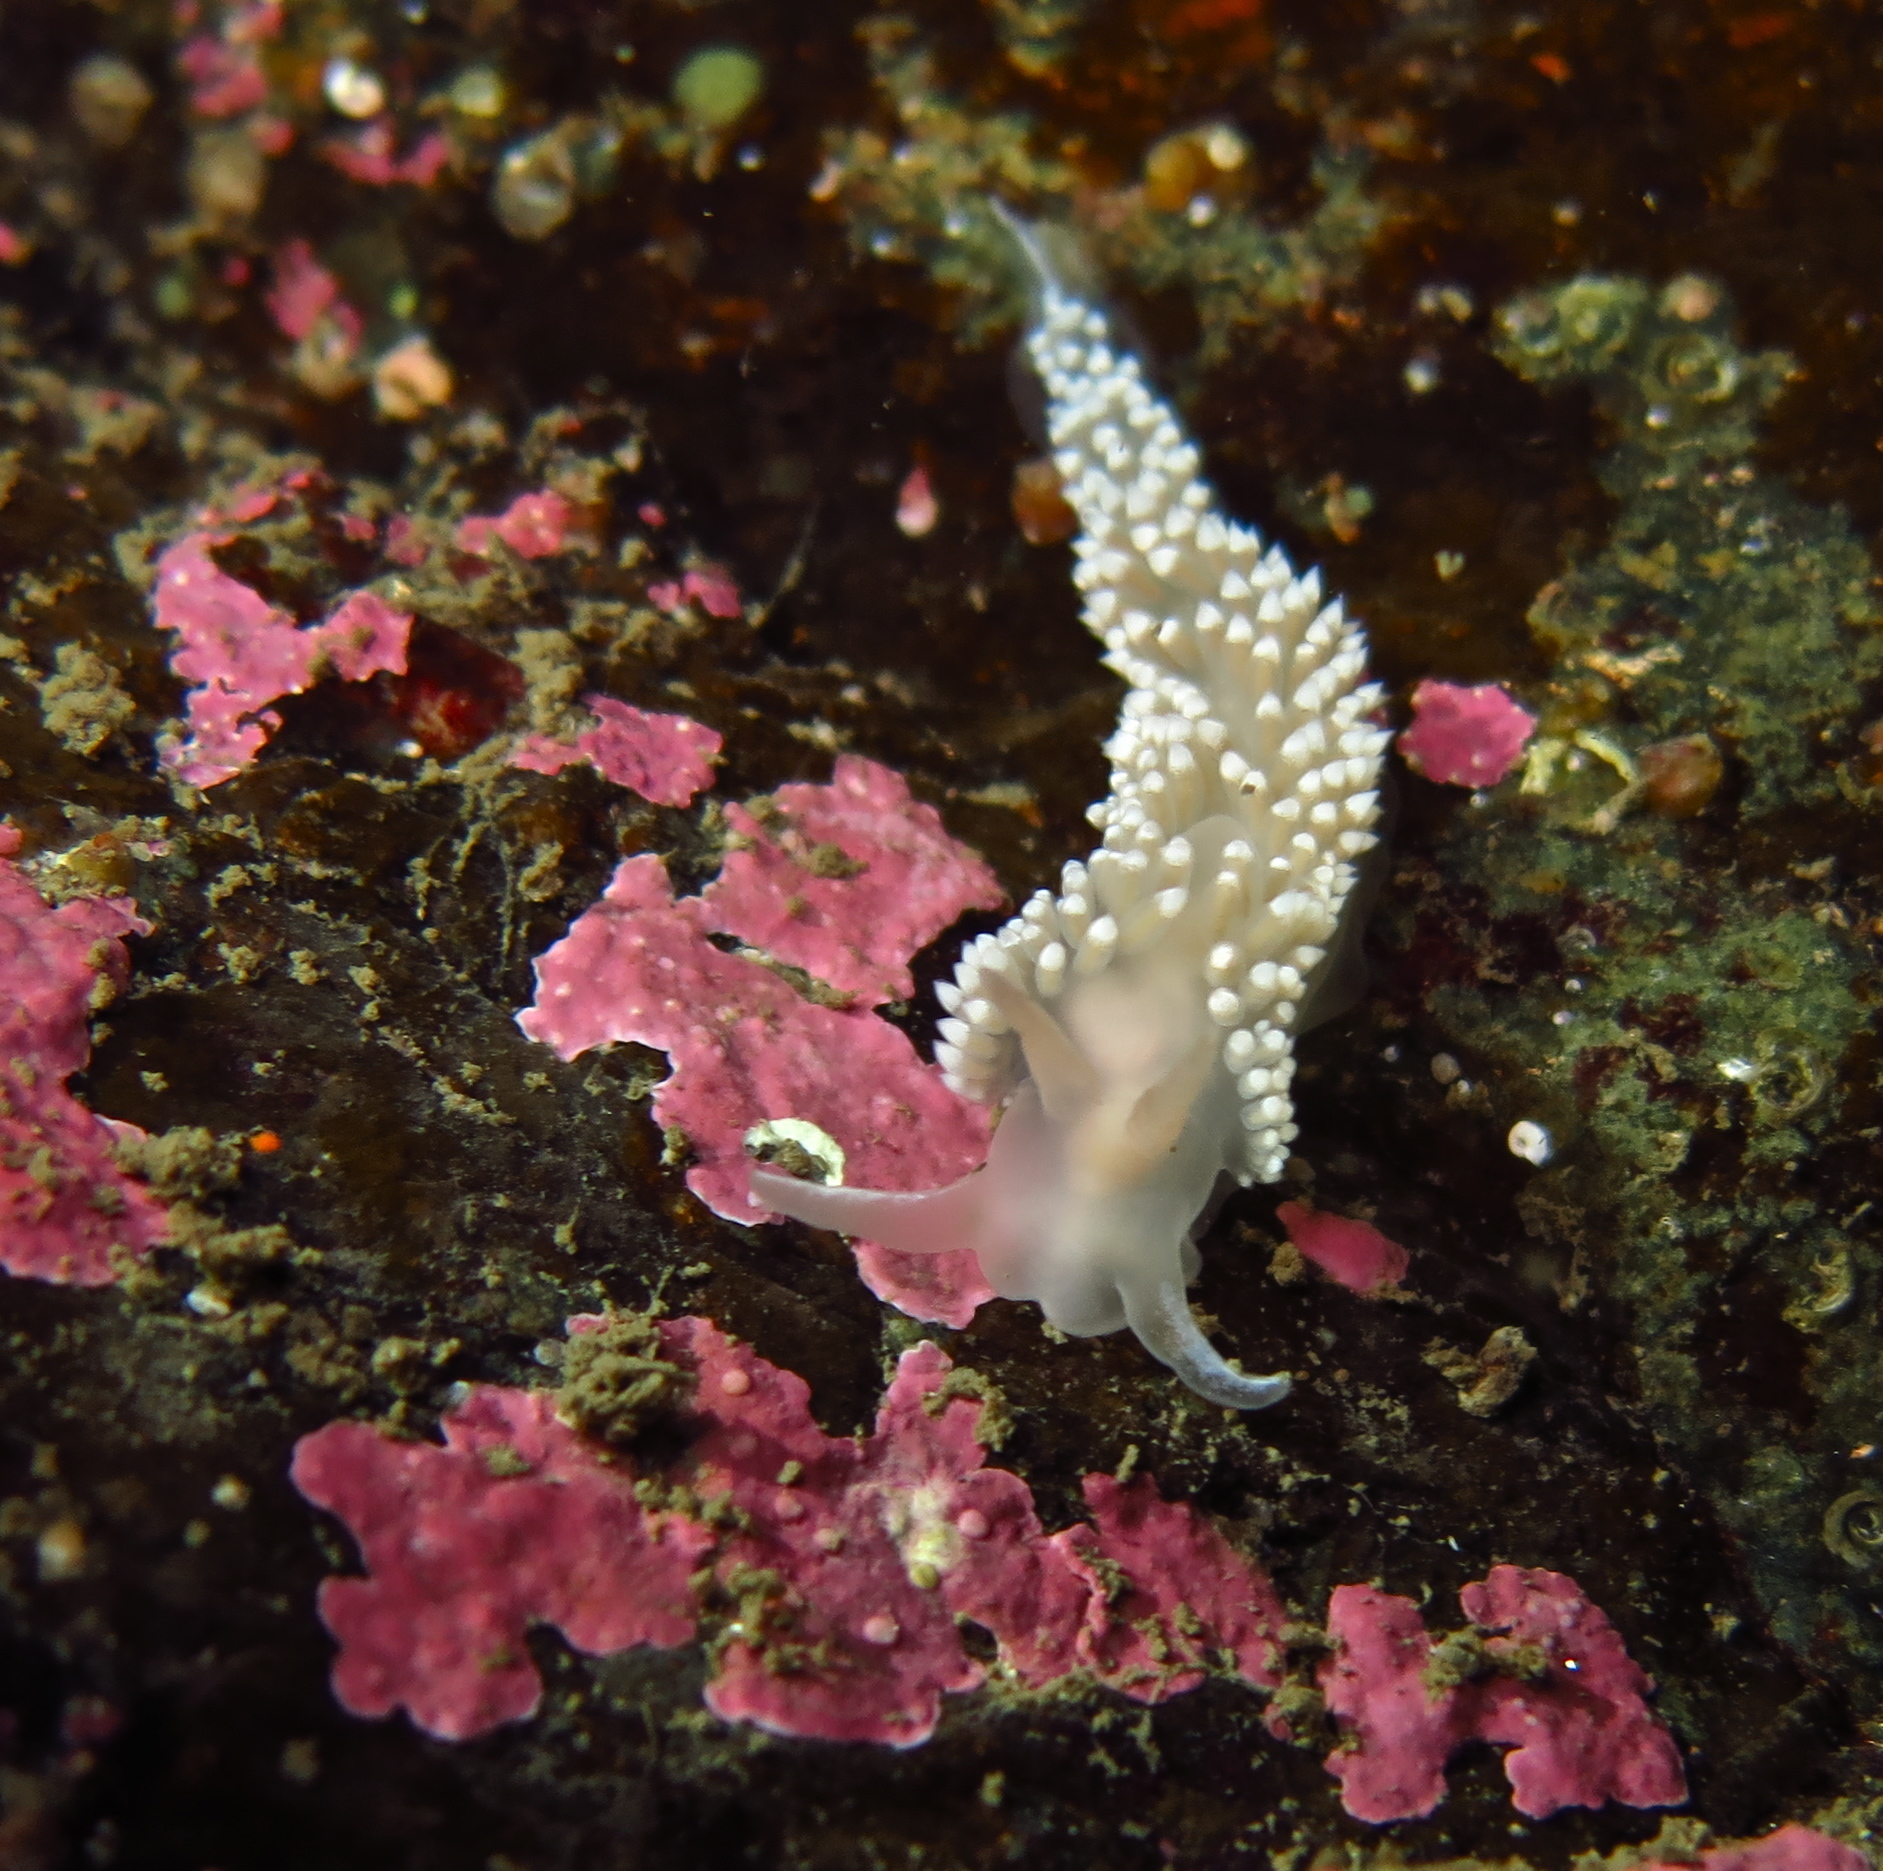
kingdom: Animalia
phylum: Mollusca
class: Gastropoda
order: Nudibranchia
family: Coryphellidae
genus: Coryphella
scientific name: Coryphella verrucosa
